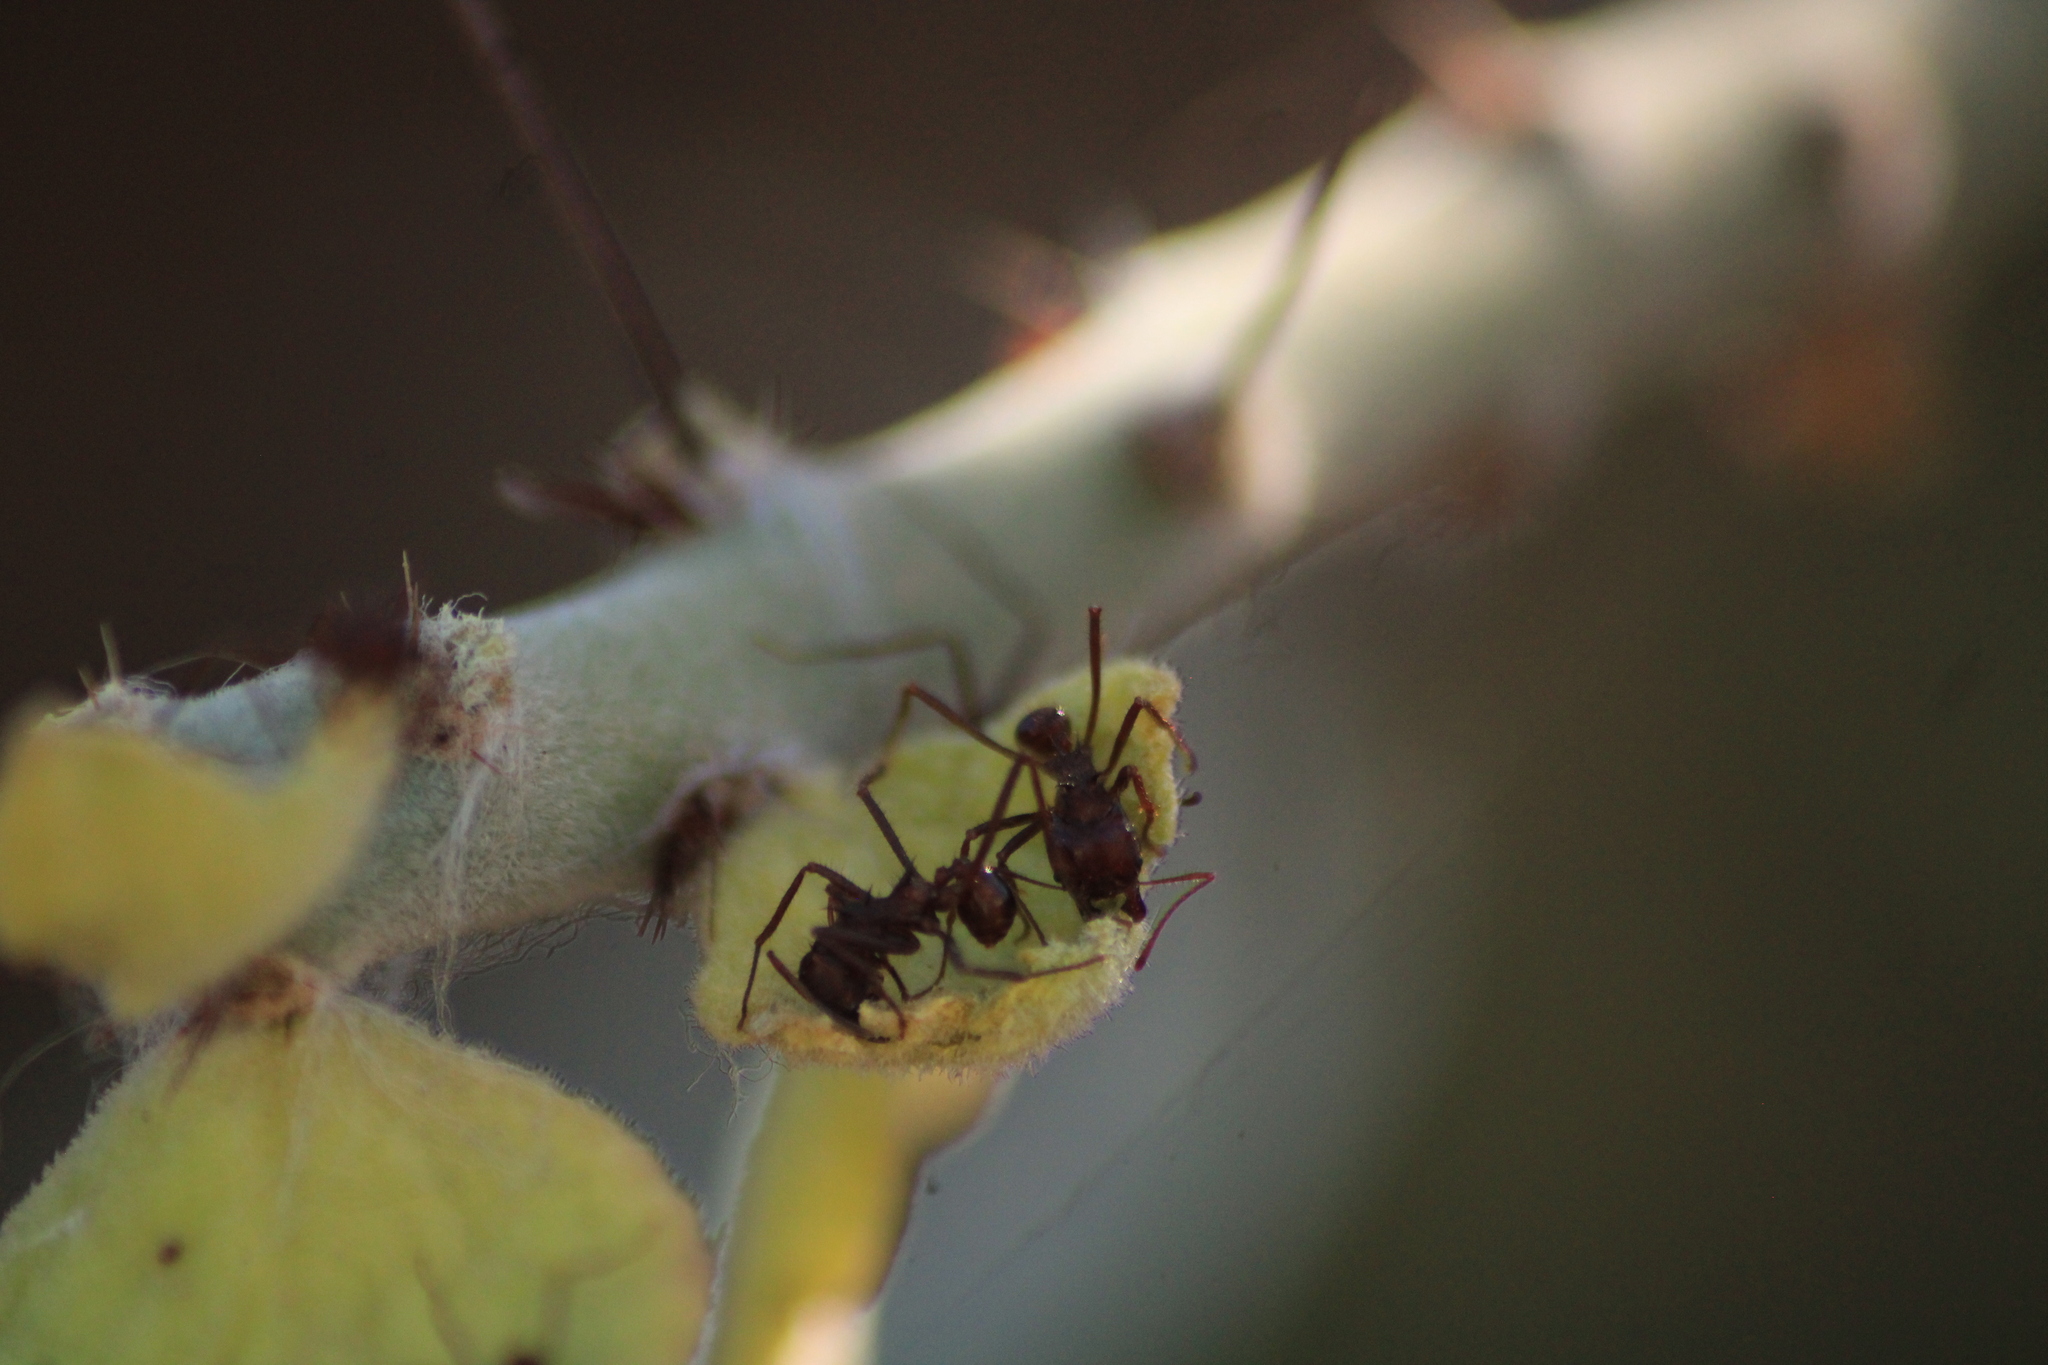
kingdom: Animalia
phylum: Arthropoda
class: Insecta
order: Hymenoptera
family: Formicidae
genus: Atta
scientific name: Atta mexicana
